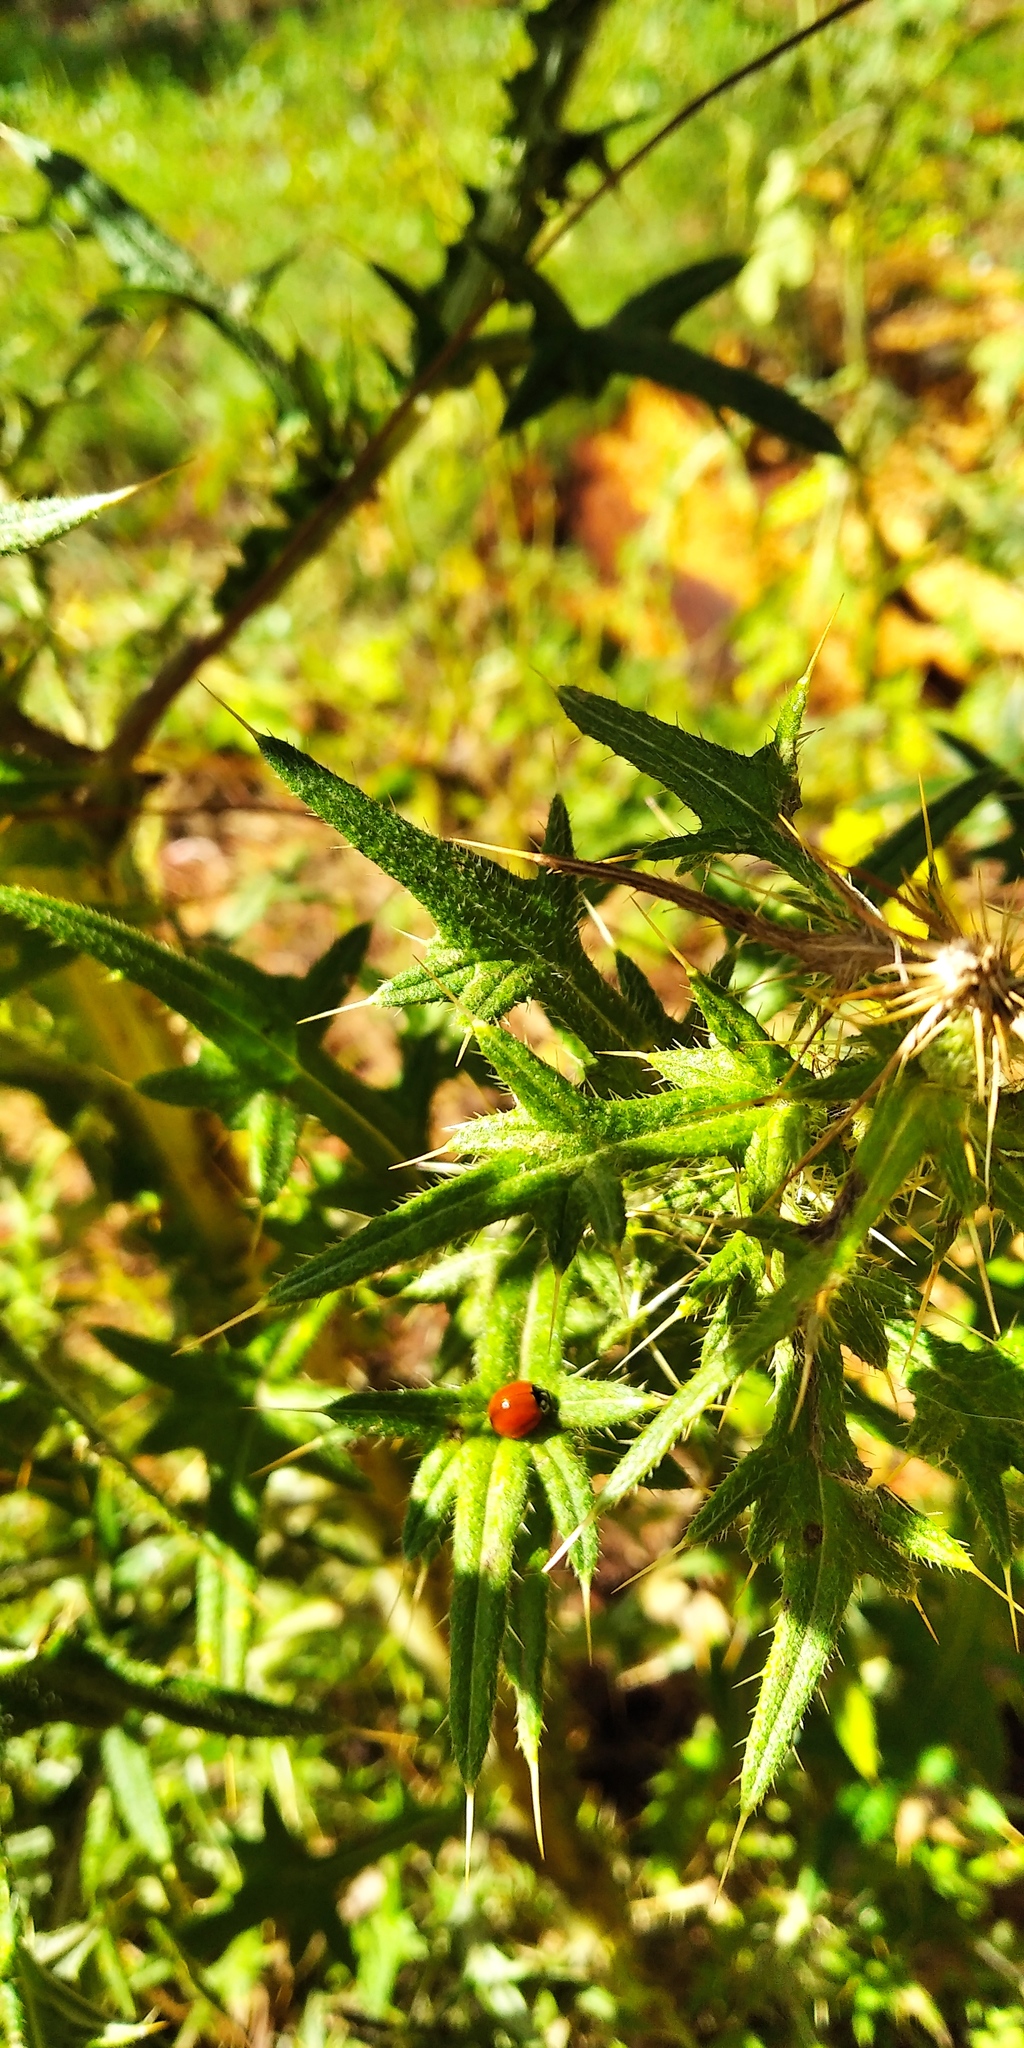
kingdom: Animalia
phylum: Arthropoda
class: Insecta
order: Coleoptera
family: Coccinellidae
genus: Cycloneda
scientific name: Cycloneda sanguinea
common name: Ladybird beetle
